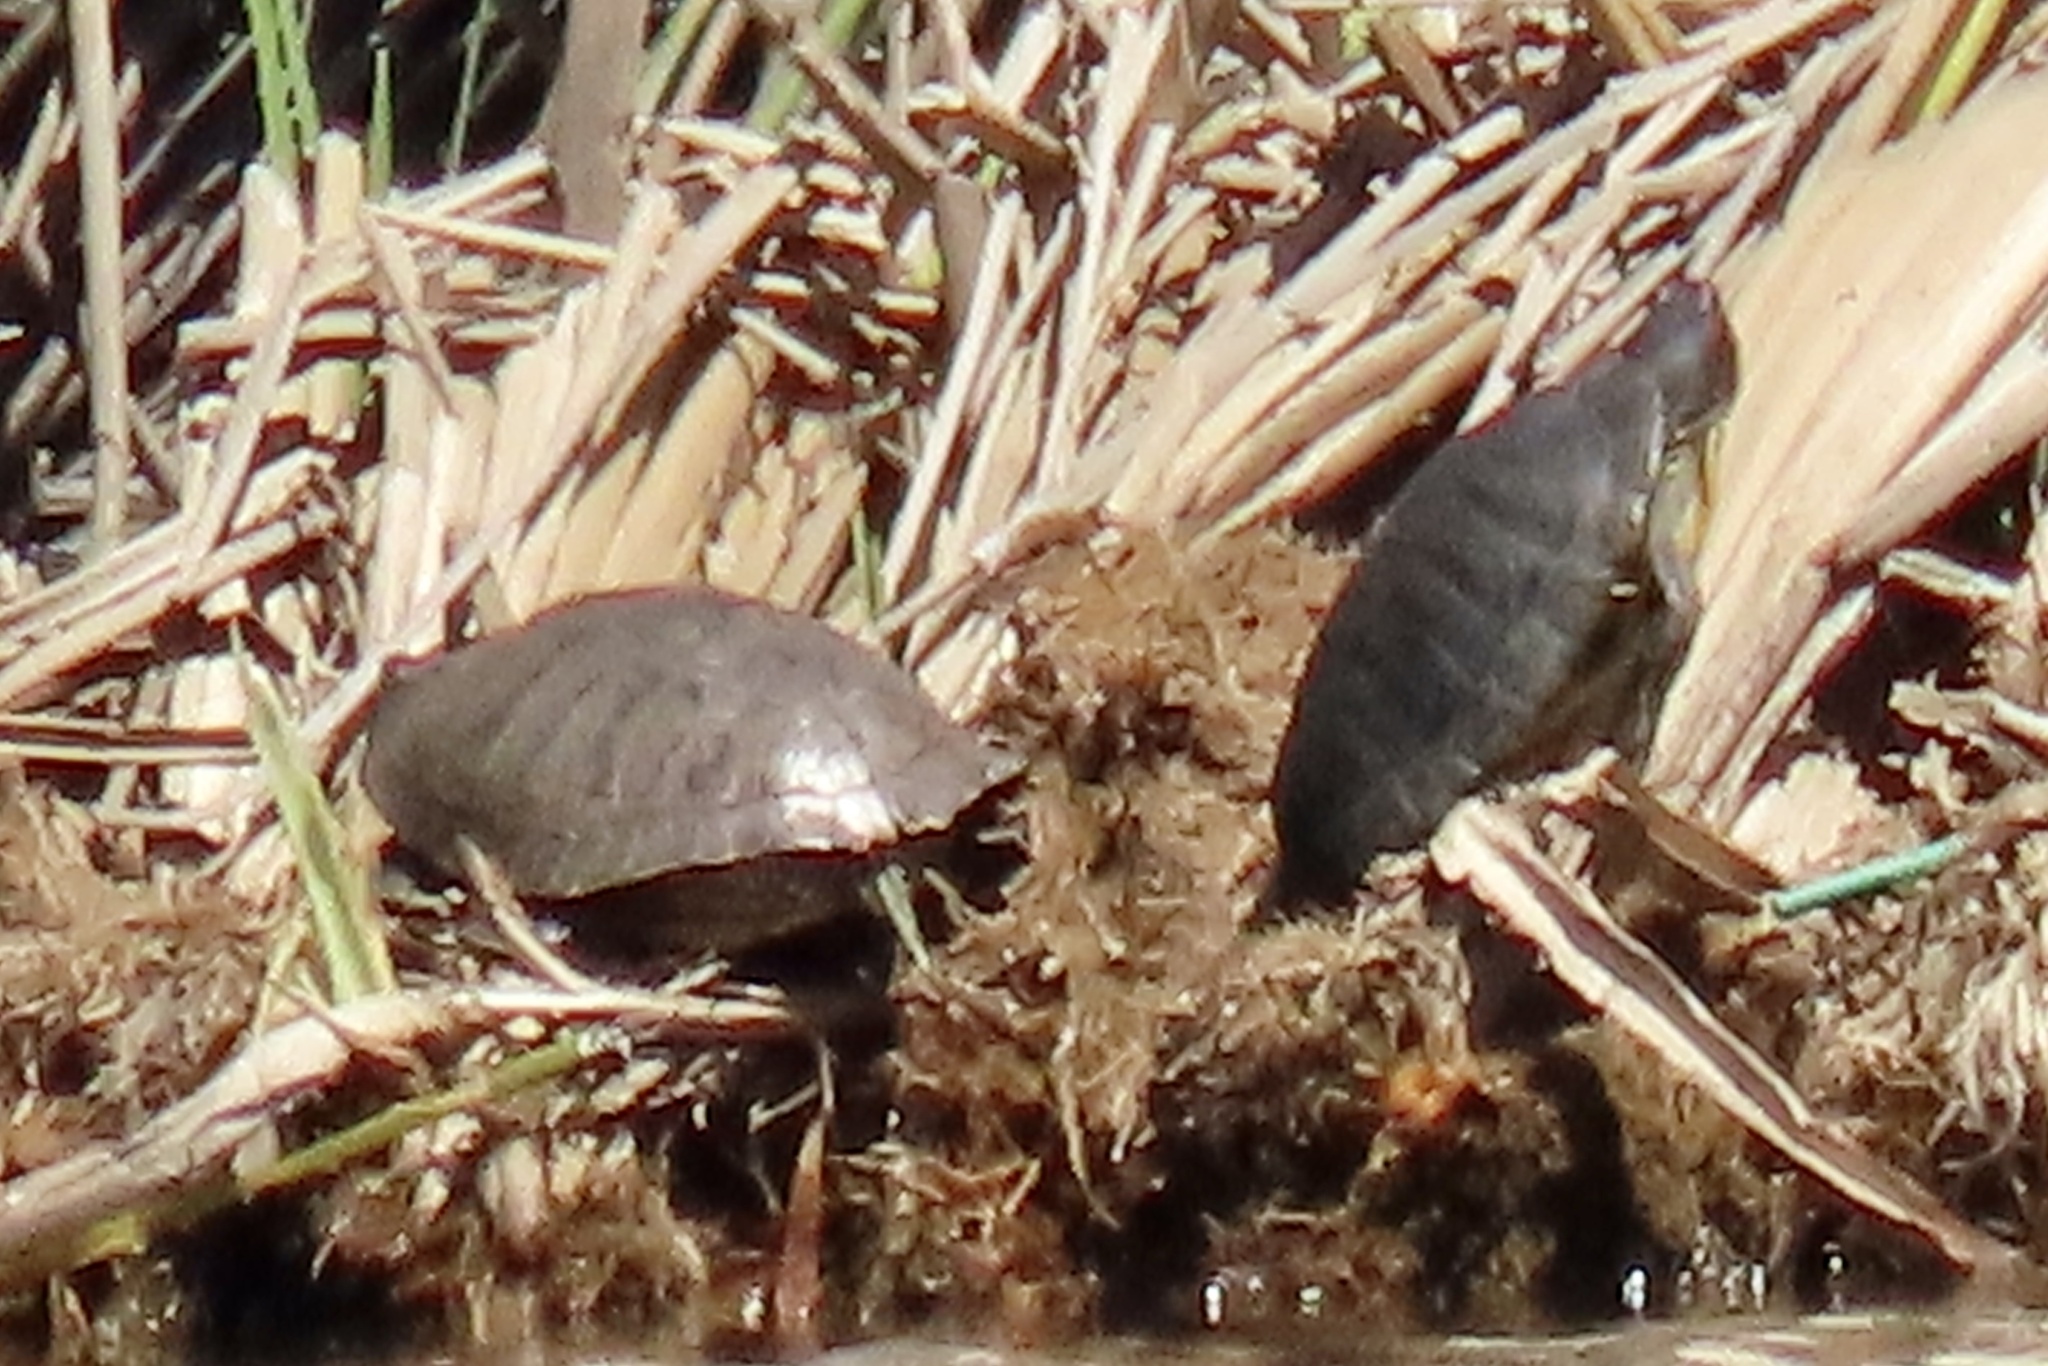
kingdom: Animalia
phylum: Chordata
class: Testudines
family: Emydidae
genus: Trachemys
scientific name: Trachemys scripta
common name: Slider
